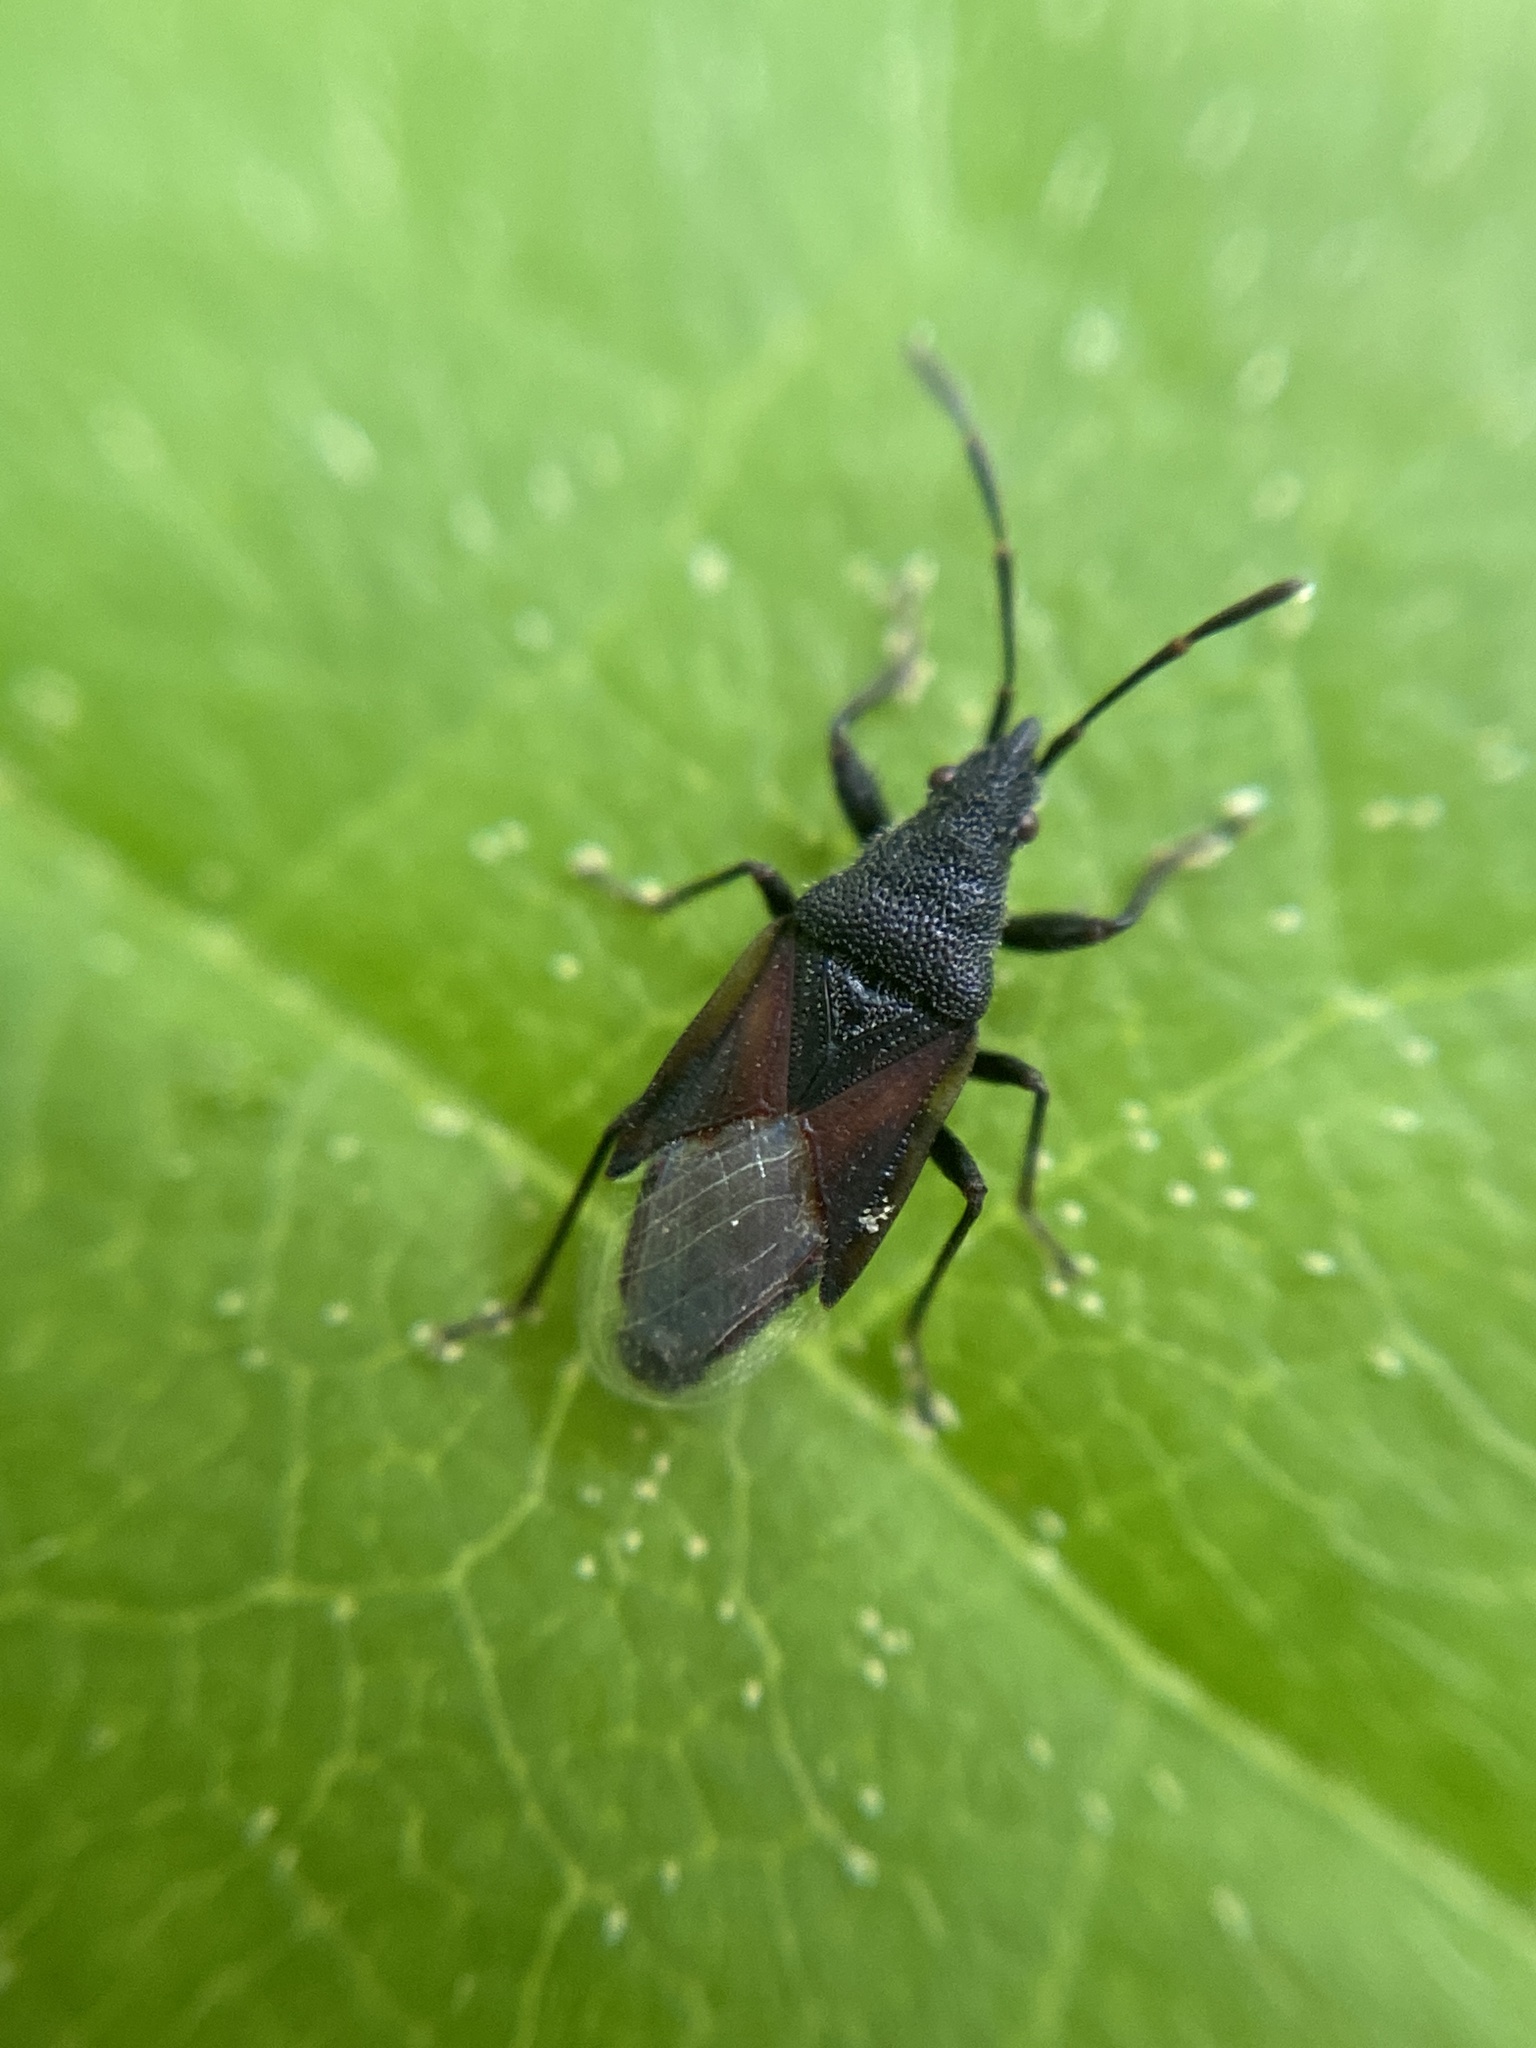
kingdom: Animalia
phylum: Arthropoda
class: Insecta
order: Hemiptera
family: Oxycarenidae
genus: Oxycarenus
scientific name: Oxycarenus lavaterae
